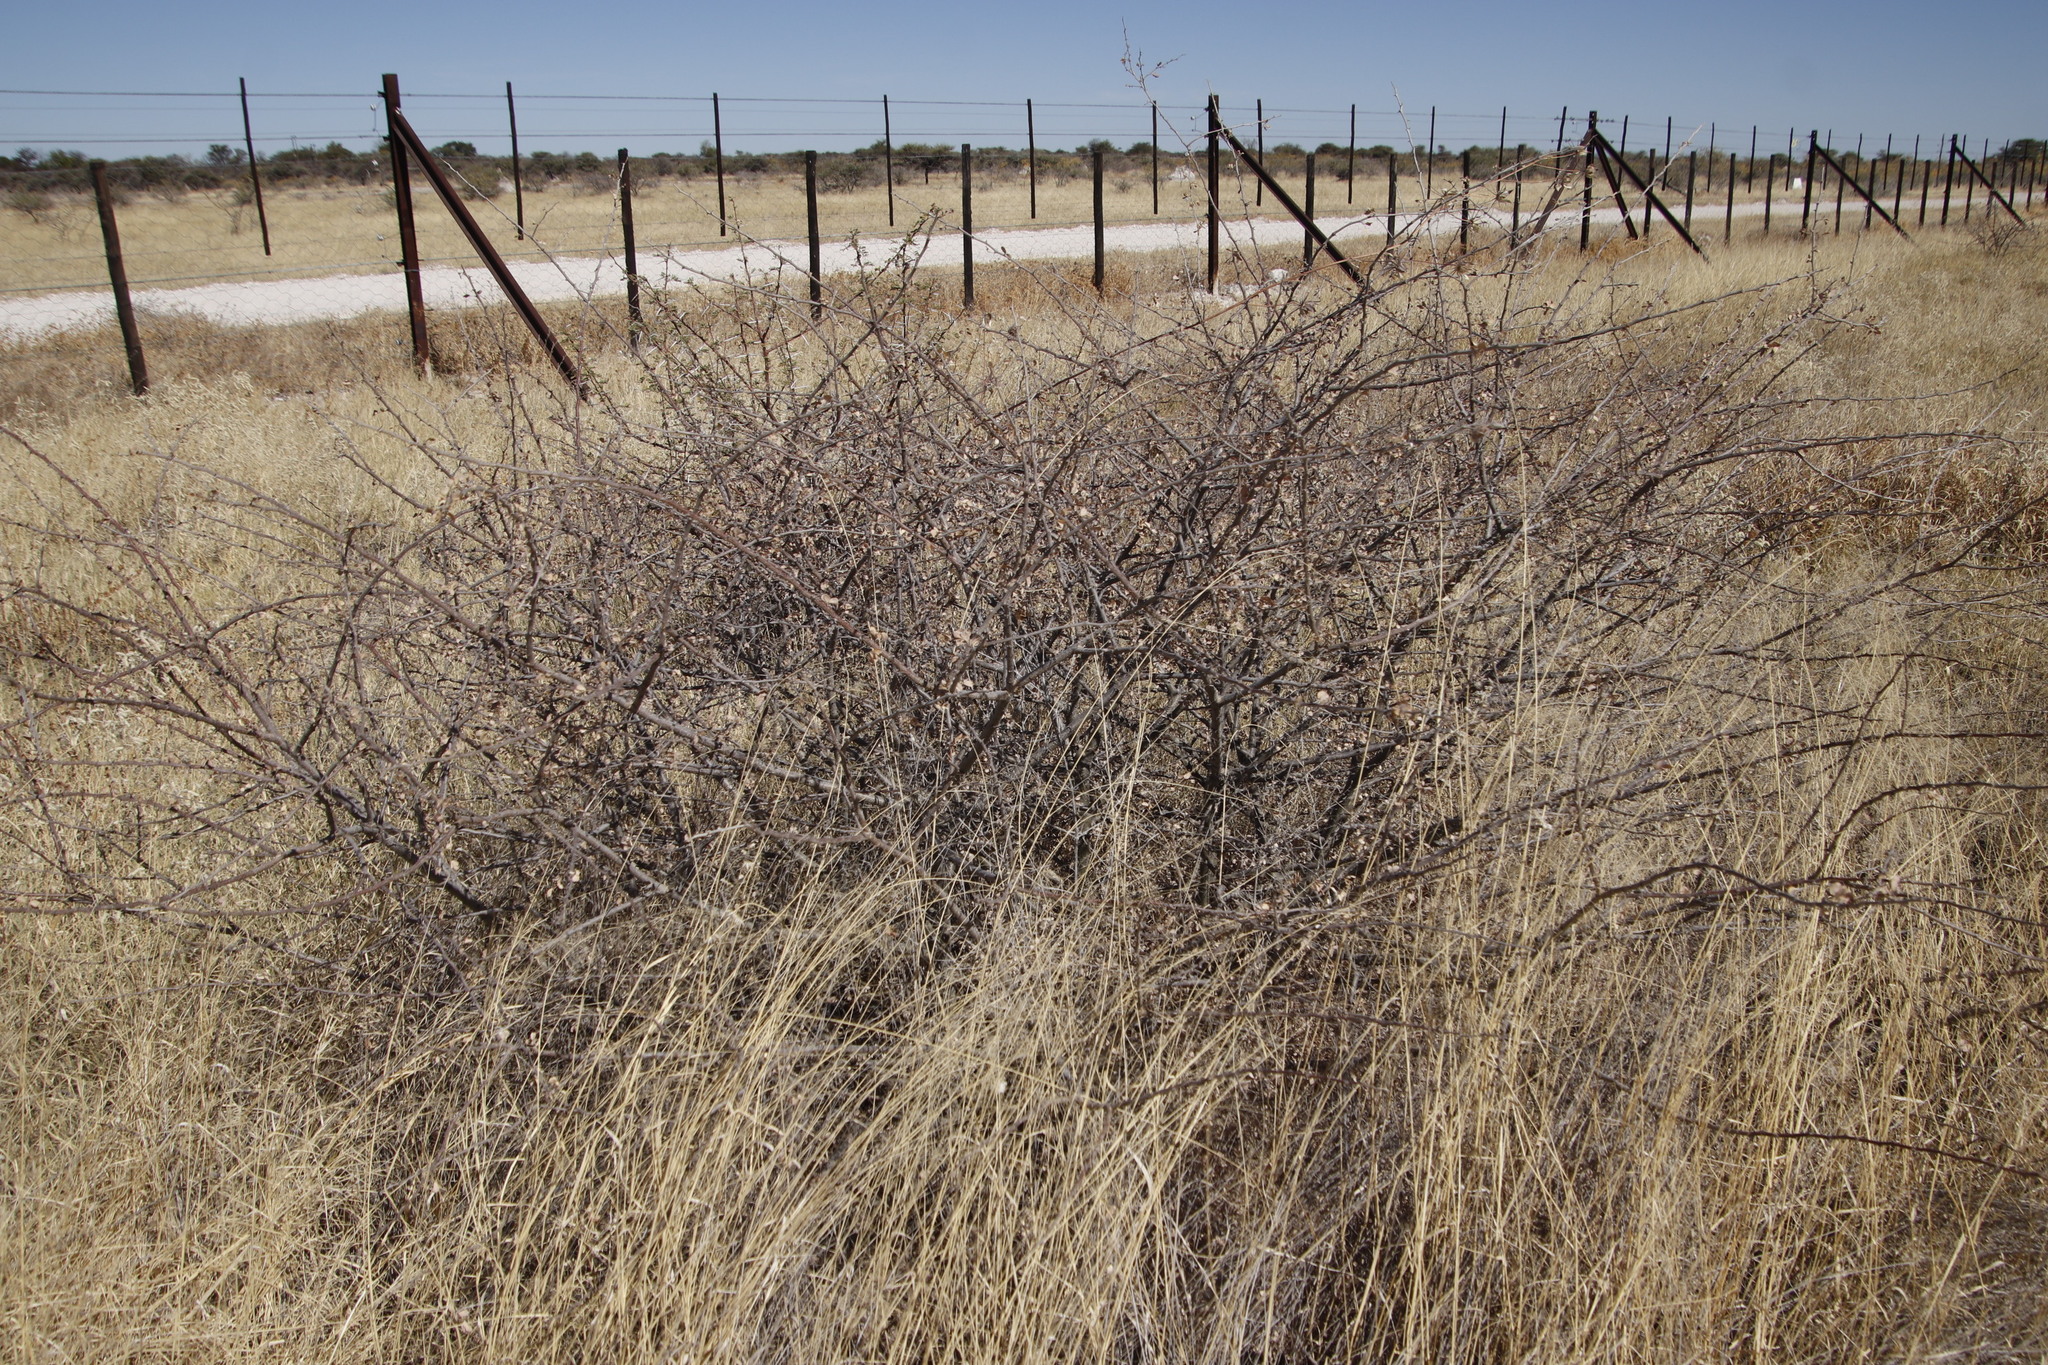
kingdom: Plantae
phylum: Tracheophyta
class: Magnoliopsida
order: Fabales
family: Fabaceae
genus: Senegalia
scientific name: Senegalia mellifera
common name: Hookthorn
